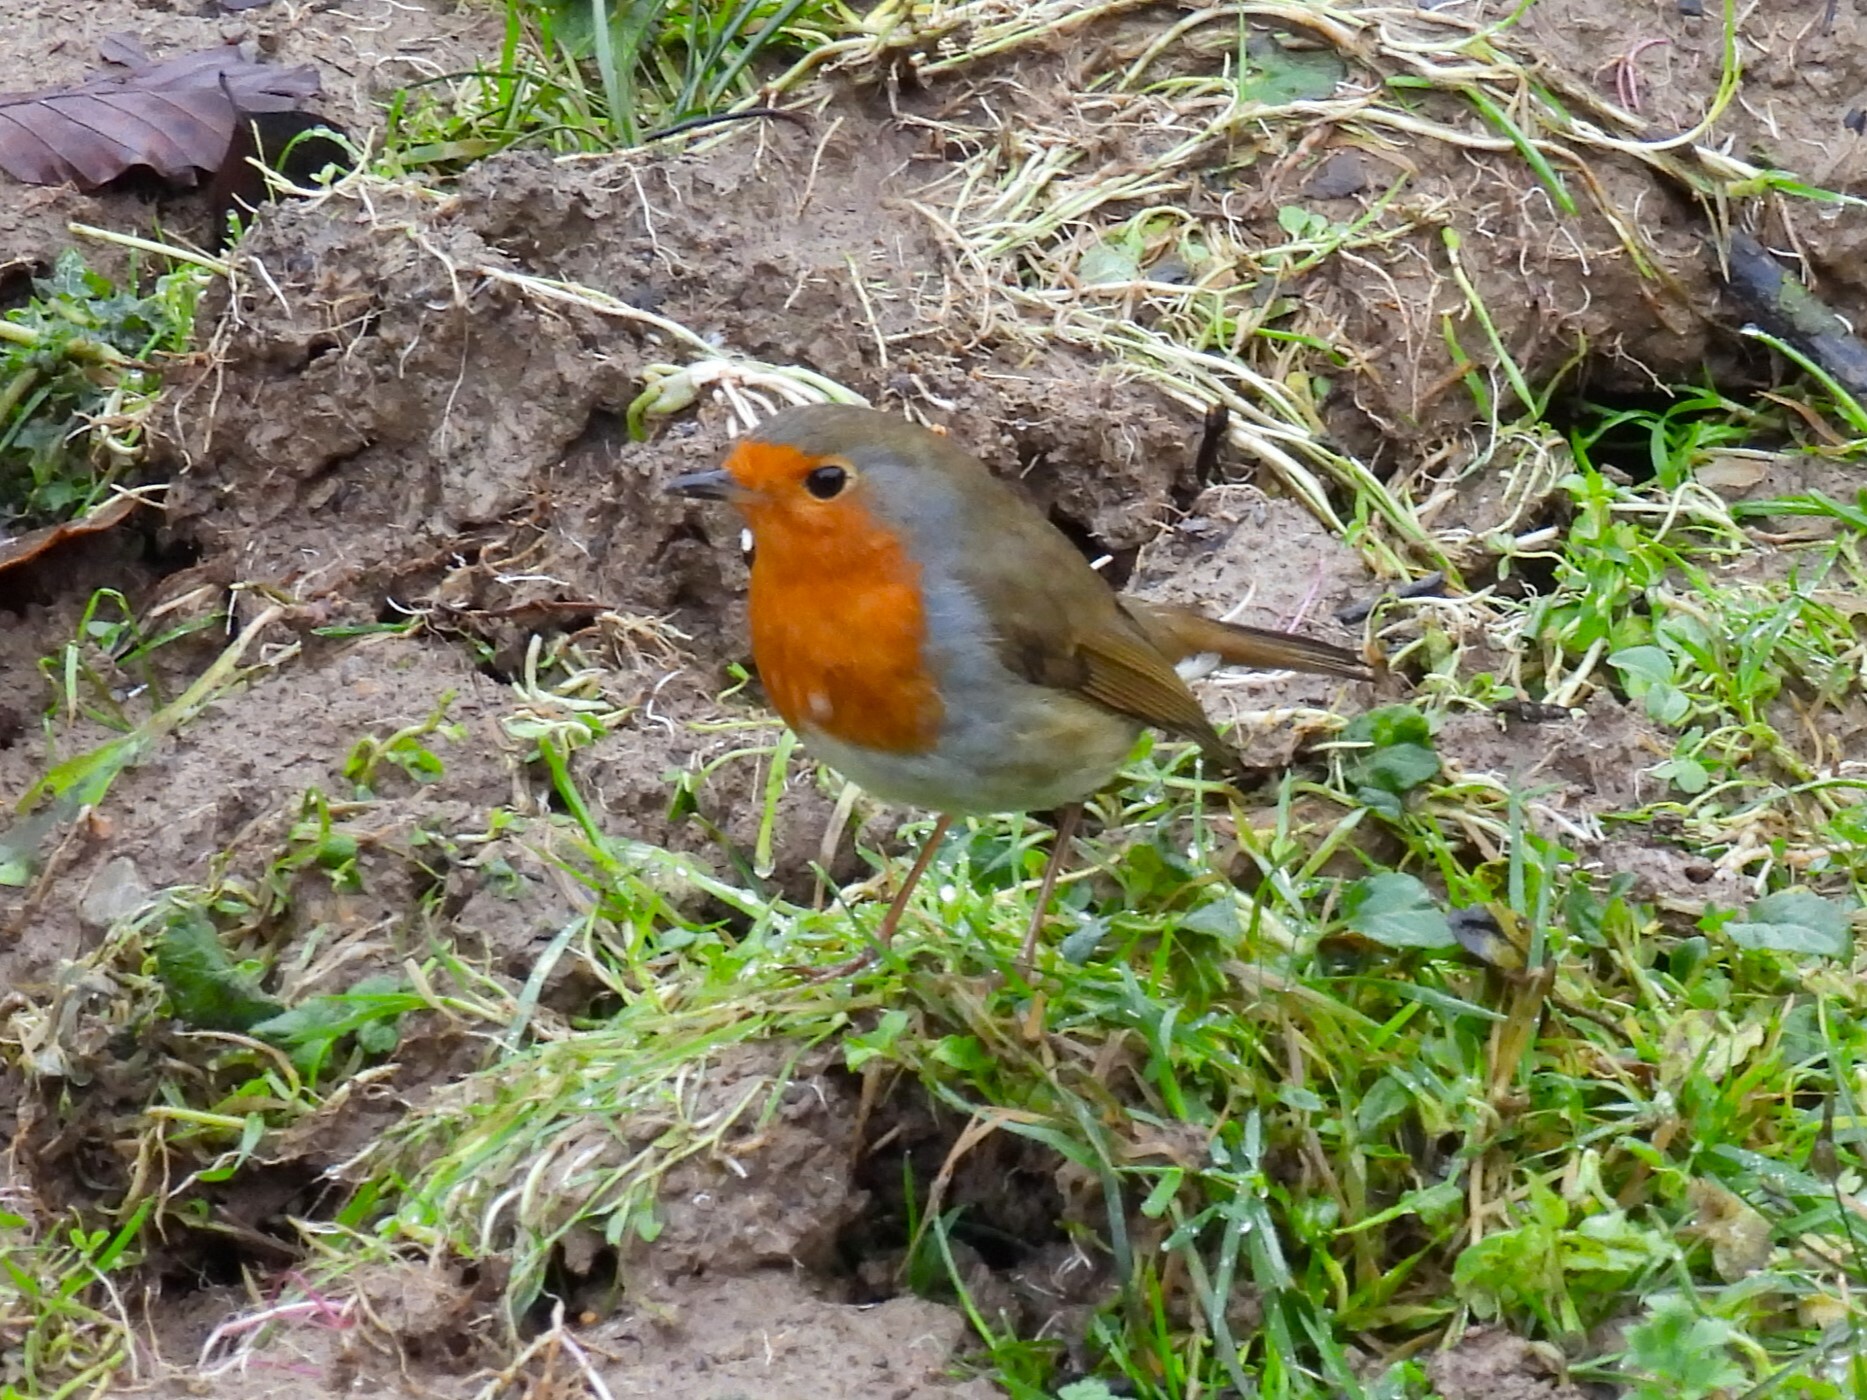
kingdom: Animalia
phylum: Chordata
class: Aves
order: Passeriformes
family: Muscicapidae
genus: Erithacus
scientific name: Erithacus rubecula
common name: European robin
